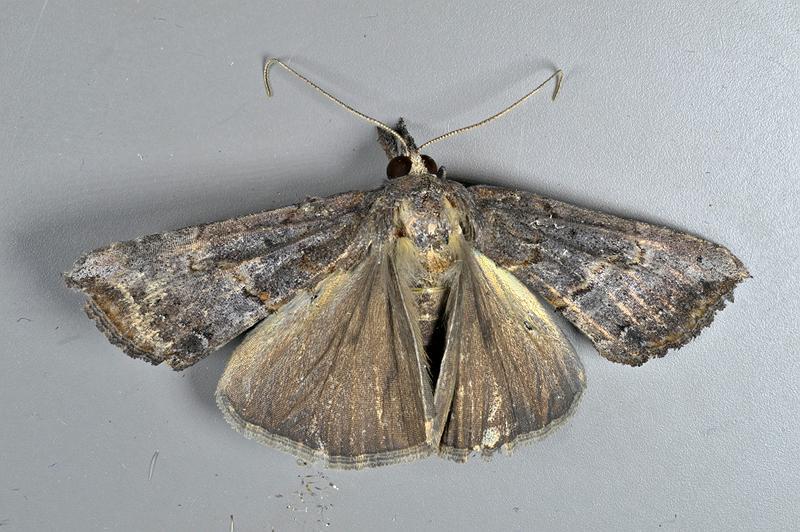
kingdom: Animalia
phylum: Arthropoda
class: Insecta
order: Lepidoptera
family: Erebidae
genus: Hypena
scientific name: Hypena scabra
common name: Green cloverworm
